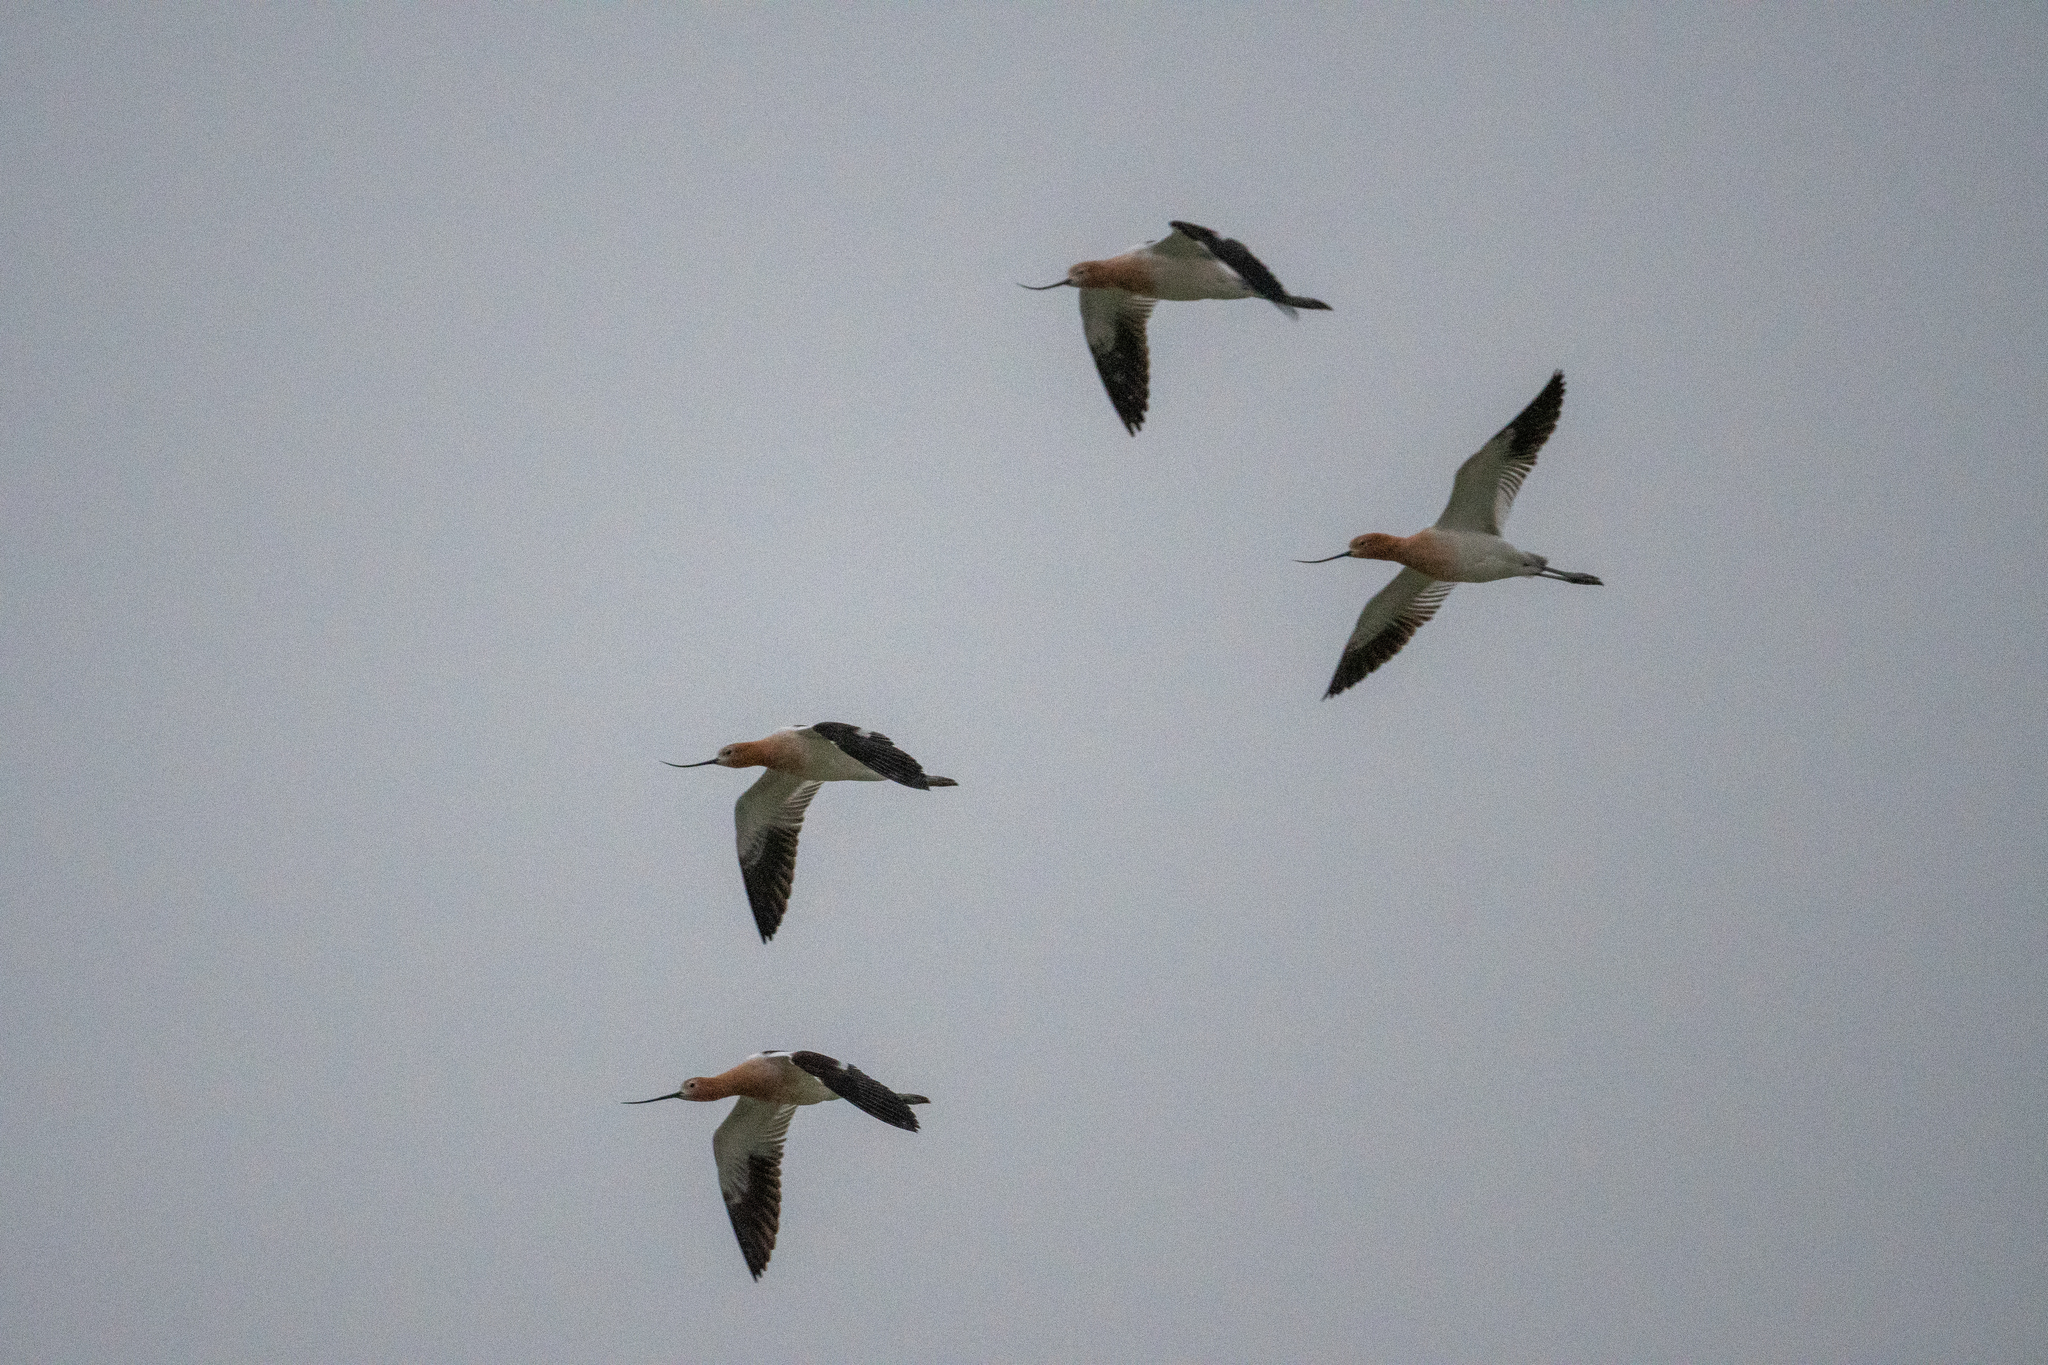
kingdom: Animalia
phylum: Chordata
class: Aves
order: Charadriiformes
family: Recurvirostridae
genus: Recurvirostra
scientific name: Recurvirostra americana
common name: American avocet
